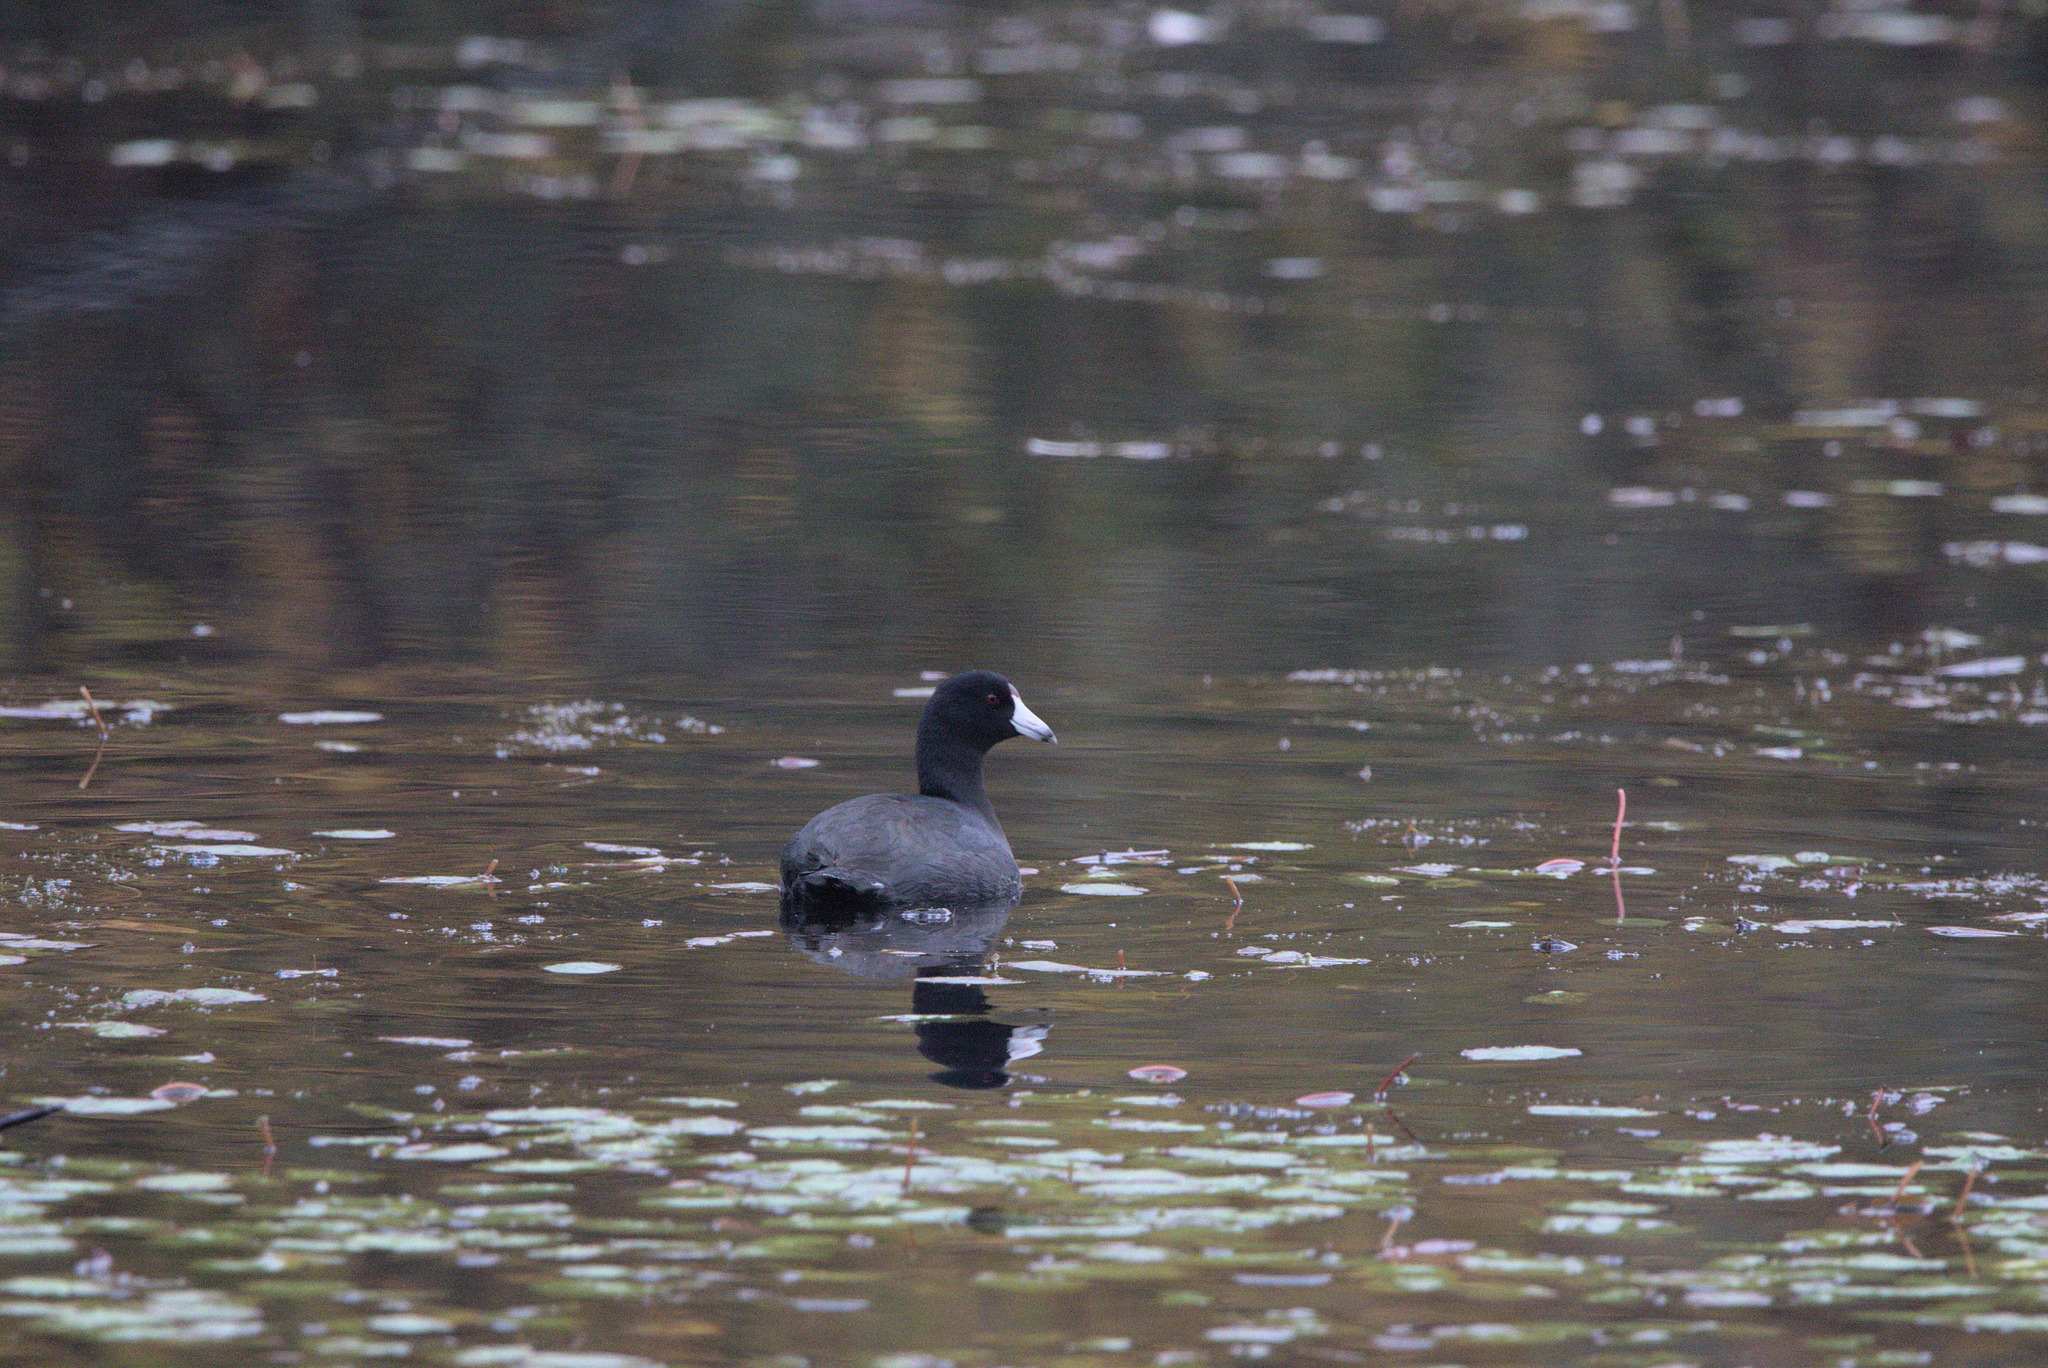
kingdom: Animalia
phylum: Chordata
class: Aves
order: Gruiformes
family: Rallidae
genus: Fulica
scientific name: Fulica americana
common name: American coot
